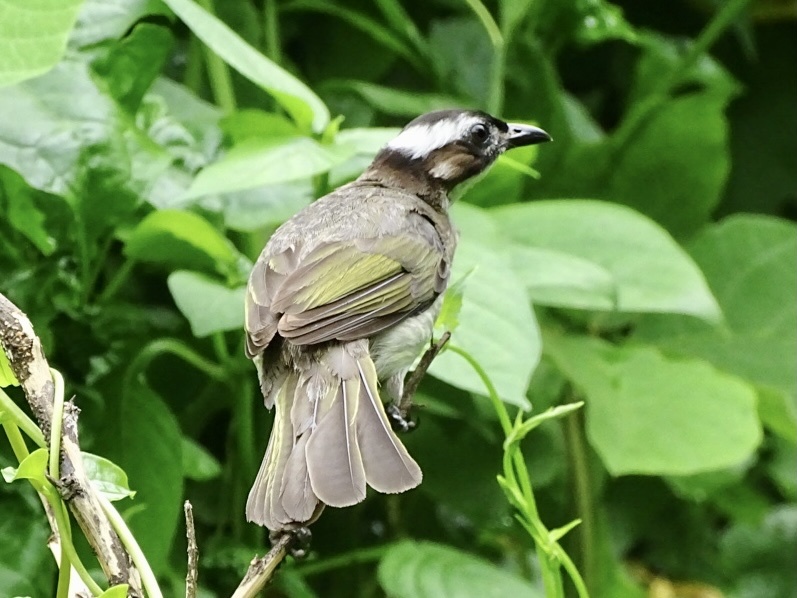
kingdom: Animalia
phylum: Chordata
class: Aves
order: Passeriformes
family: Pycnonotidae
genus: Pycnonotus
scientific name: Pycnonotus sinensis
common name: Light-vented bulbul
